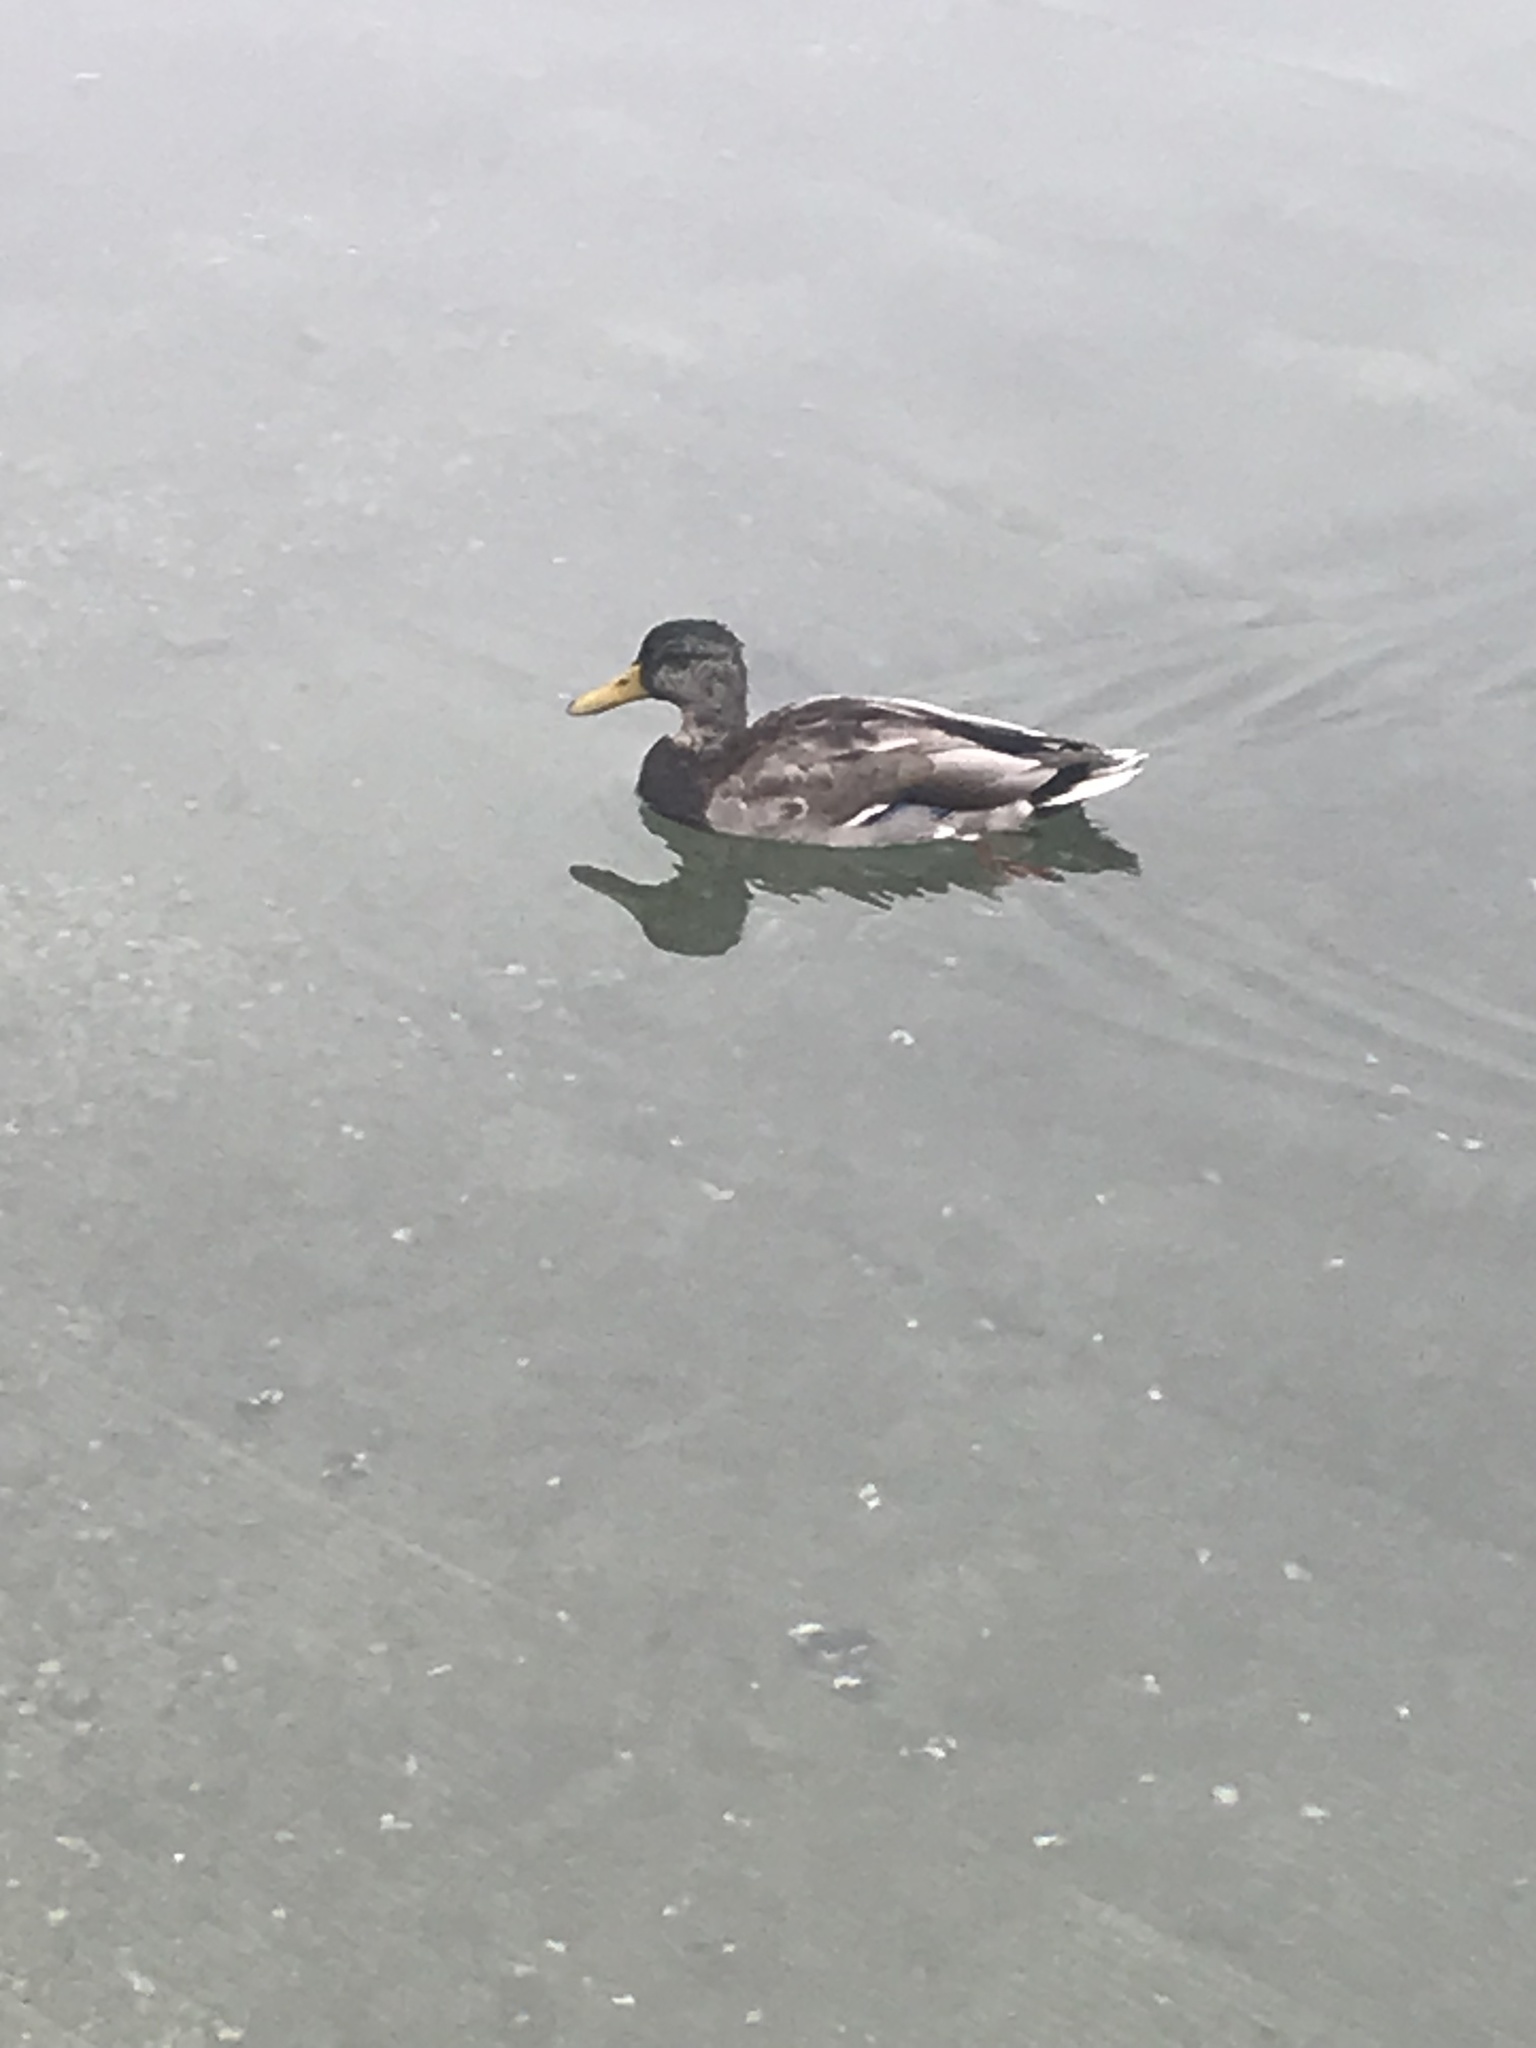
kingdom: Animalia
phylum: Chordata
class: Aves
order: Anseriformes
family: Anatidae
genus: Anas
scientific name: Anas platyrhynchos
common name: Mallard
